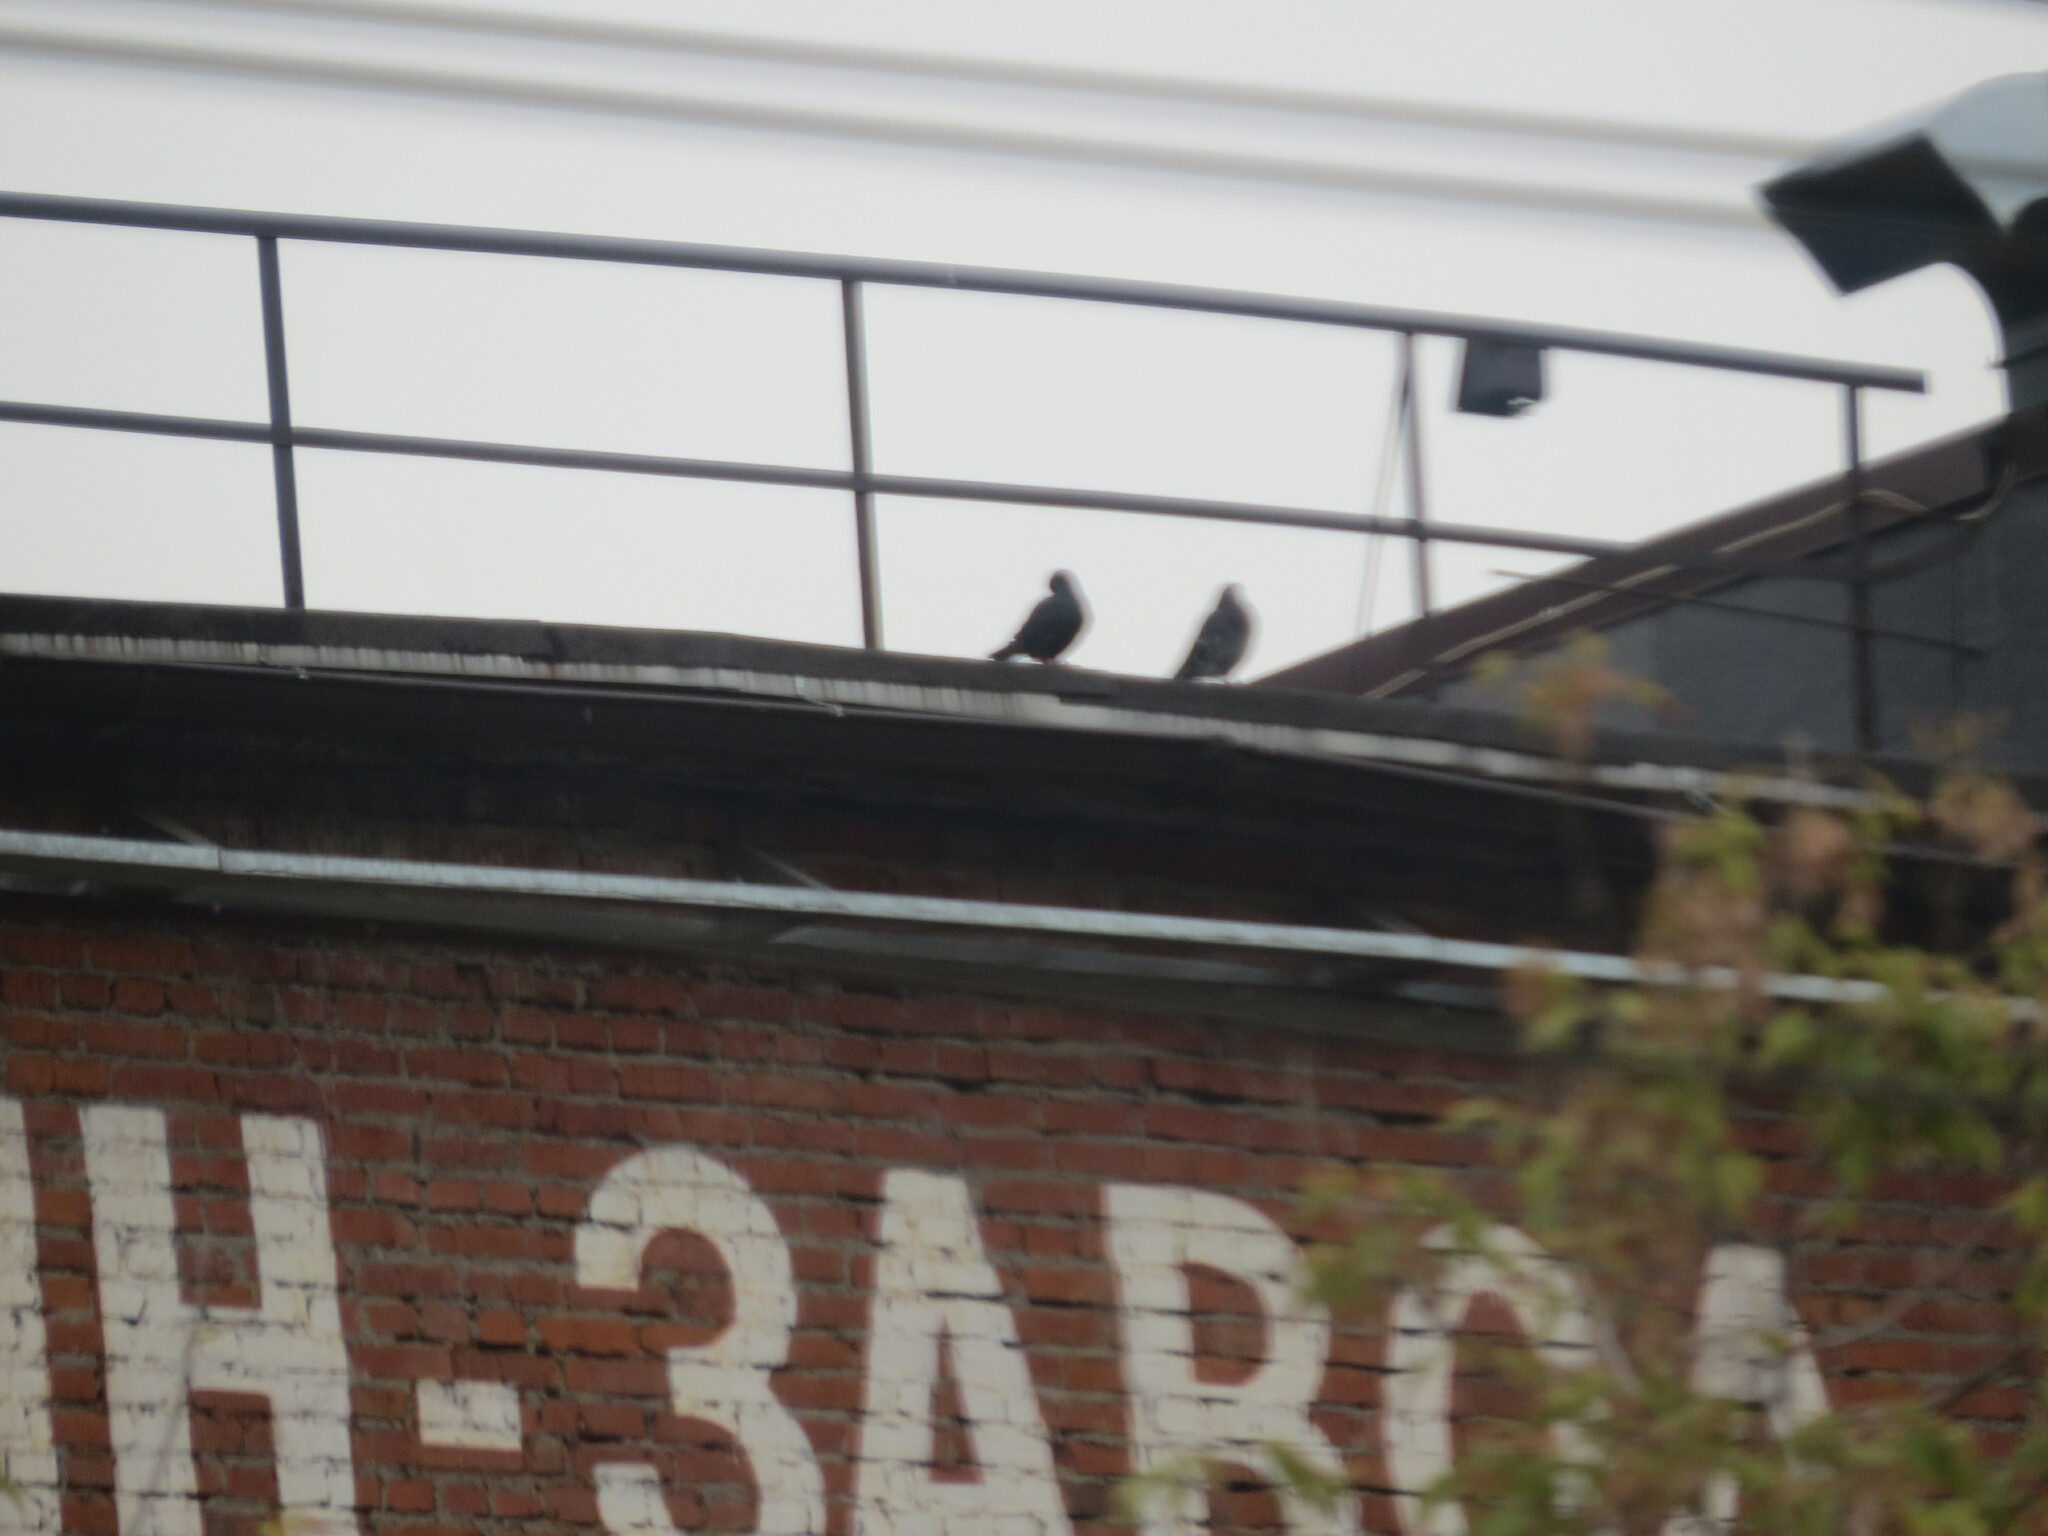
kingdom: Animalia
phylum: Chordata
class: Aves
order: Columbiformes
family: Columbidae
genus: Columba
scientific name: Columba livia
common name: Rock pigeon
